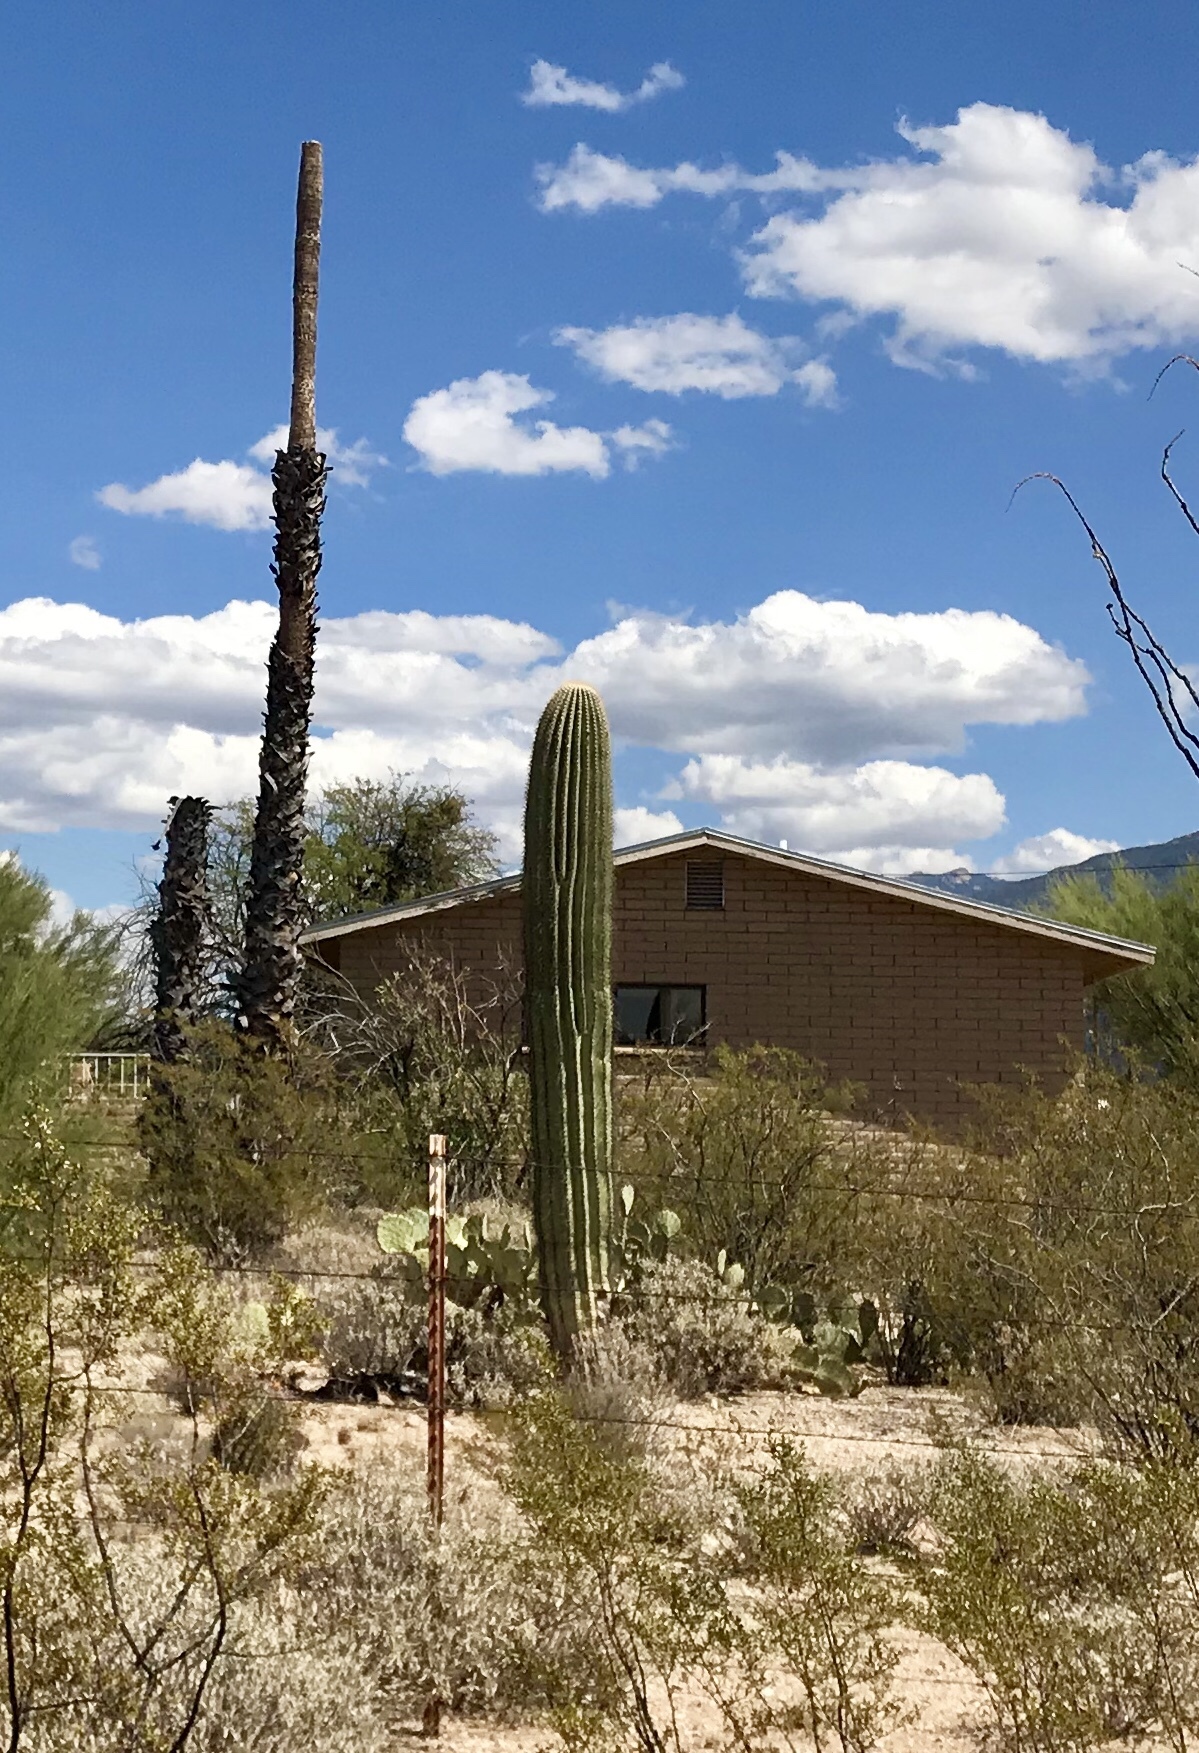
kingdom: Plantae
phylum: Tracheophyta
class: Magnoliopsida
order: Caryophyllales
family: Cactaceae
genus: Carnegiea
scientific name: Carnegiea gigantea
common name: Saguaro
